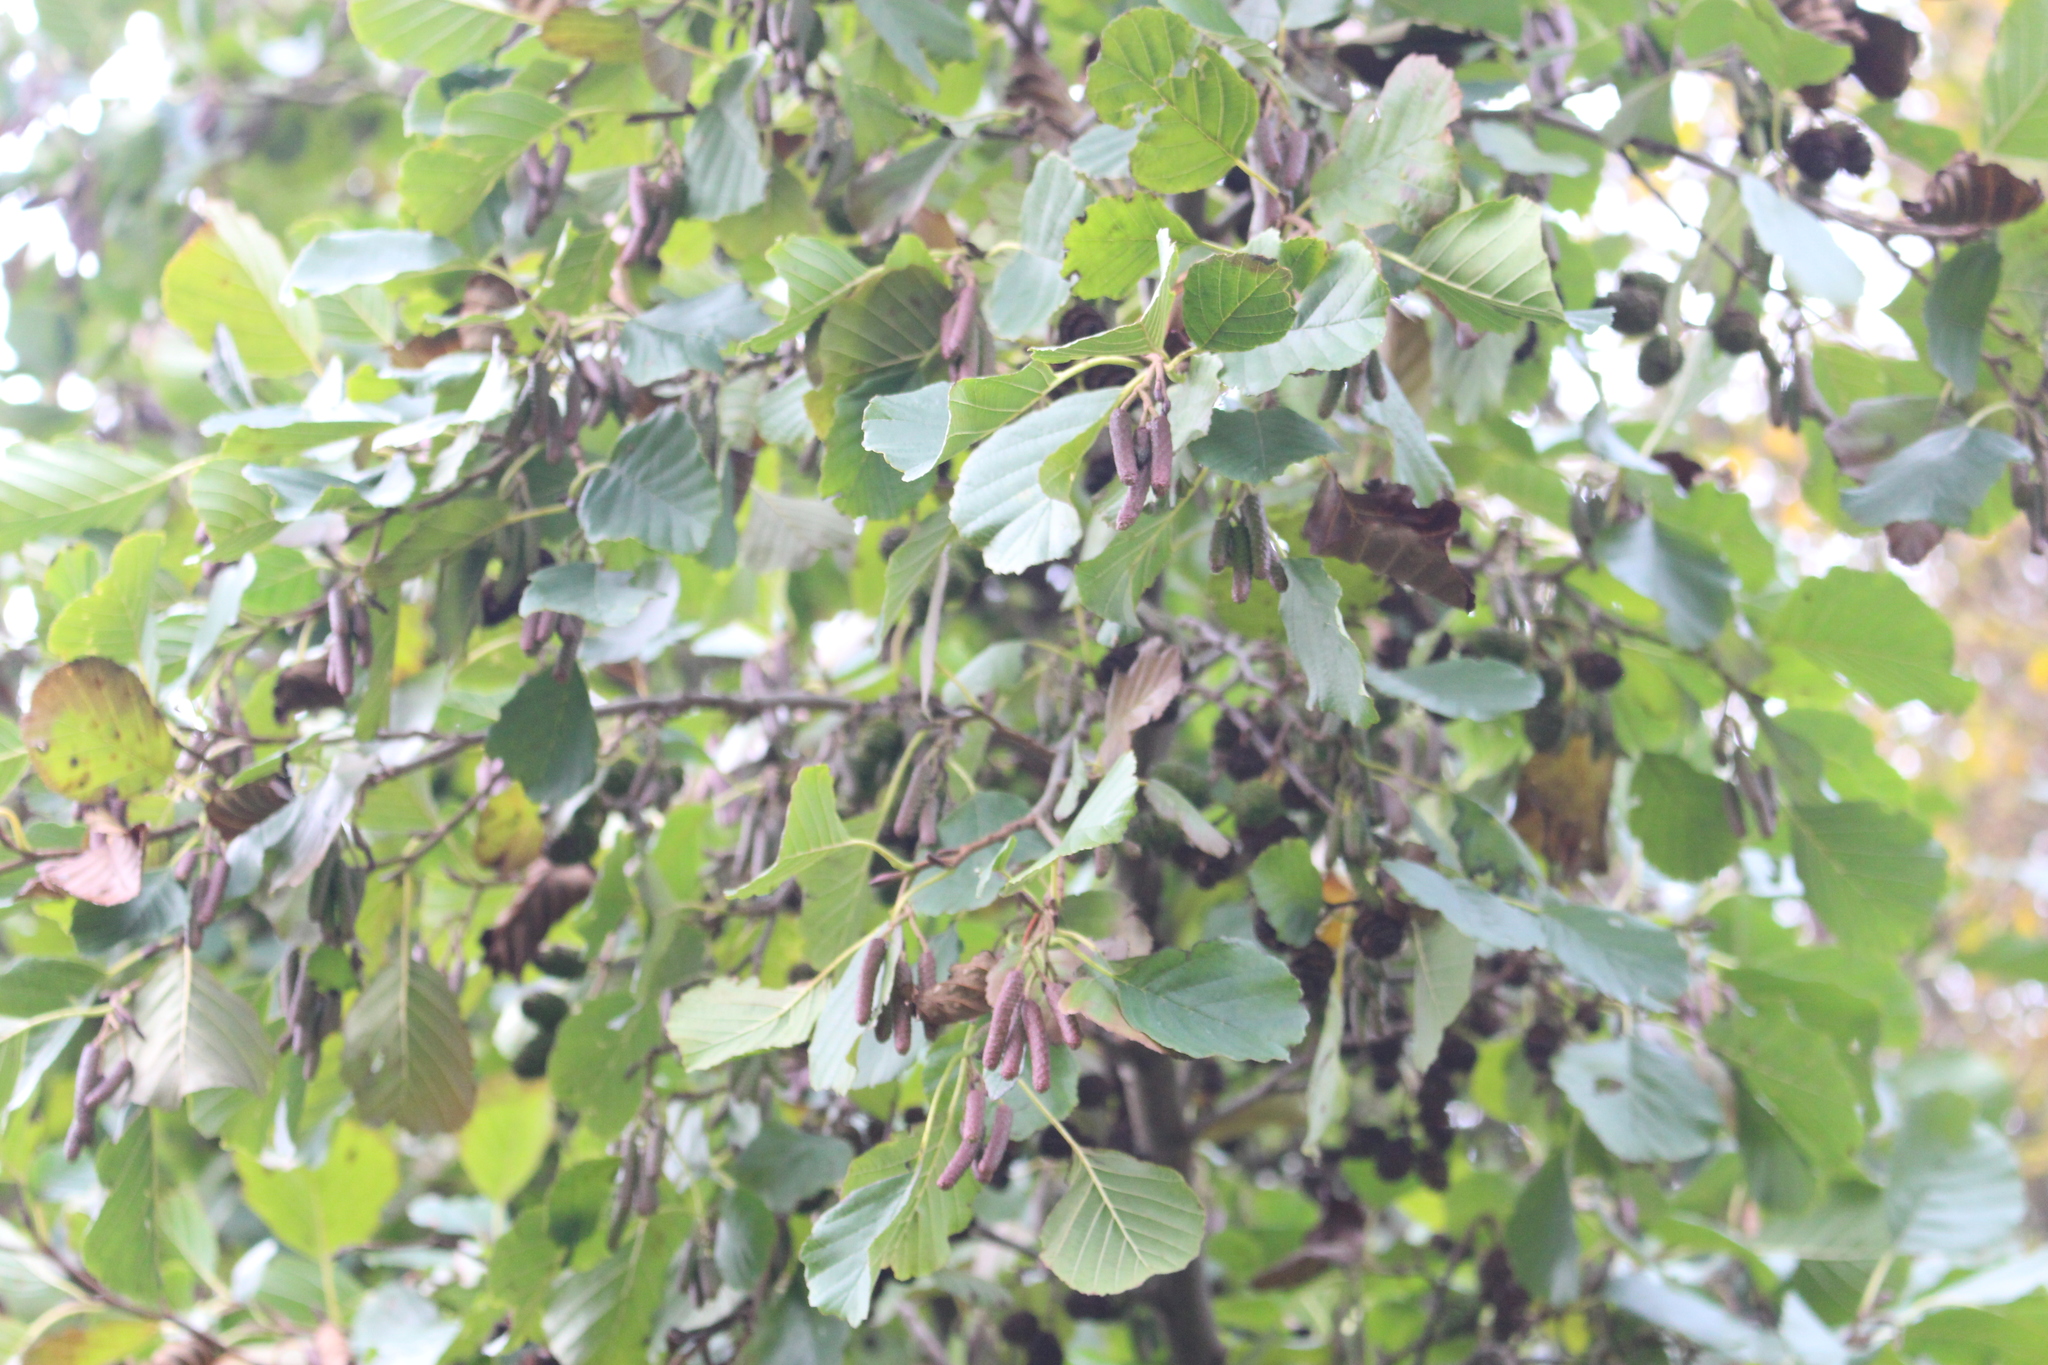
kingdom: Plantae
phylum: Tracheophyta
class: Magnoliopsida
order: Fagales
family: Betulaceae
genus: Alnus
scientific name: Alnus glutinosa
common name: Black alder
